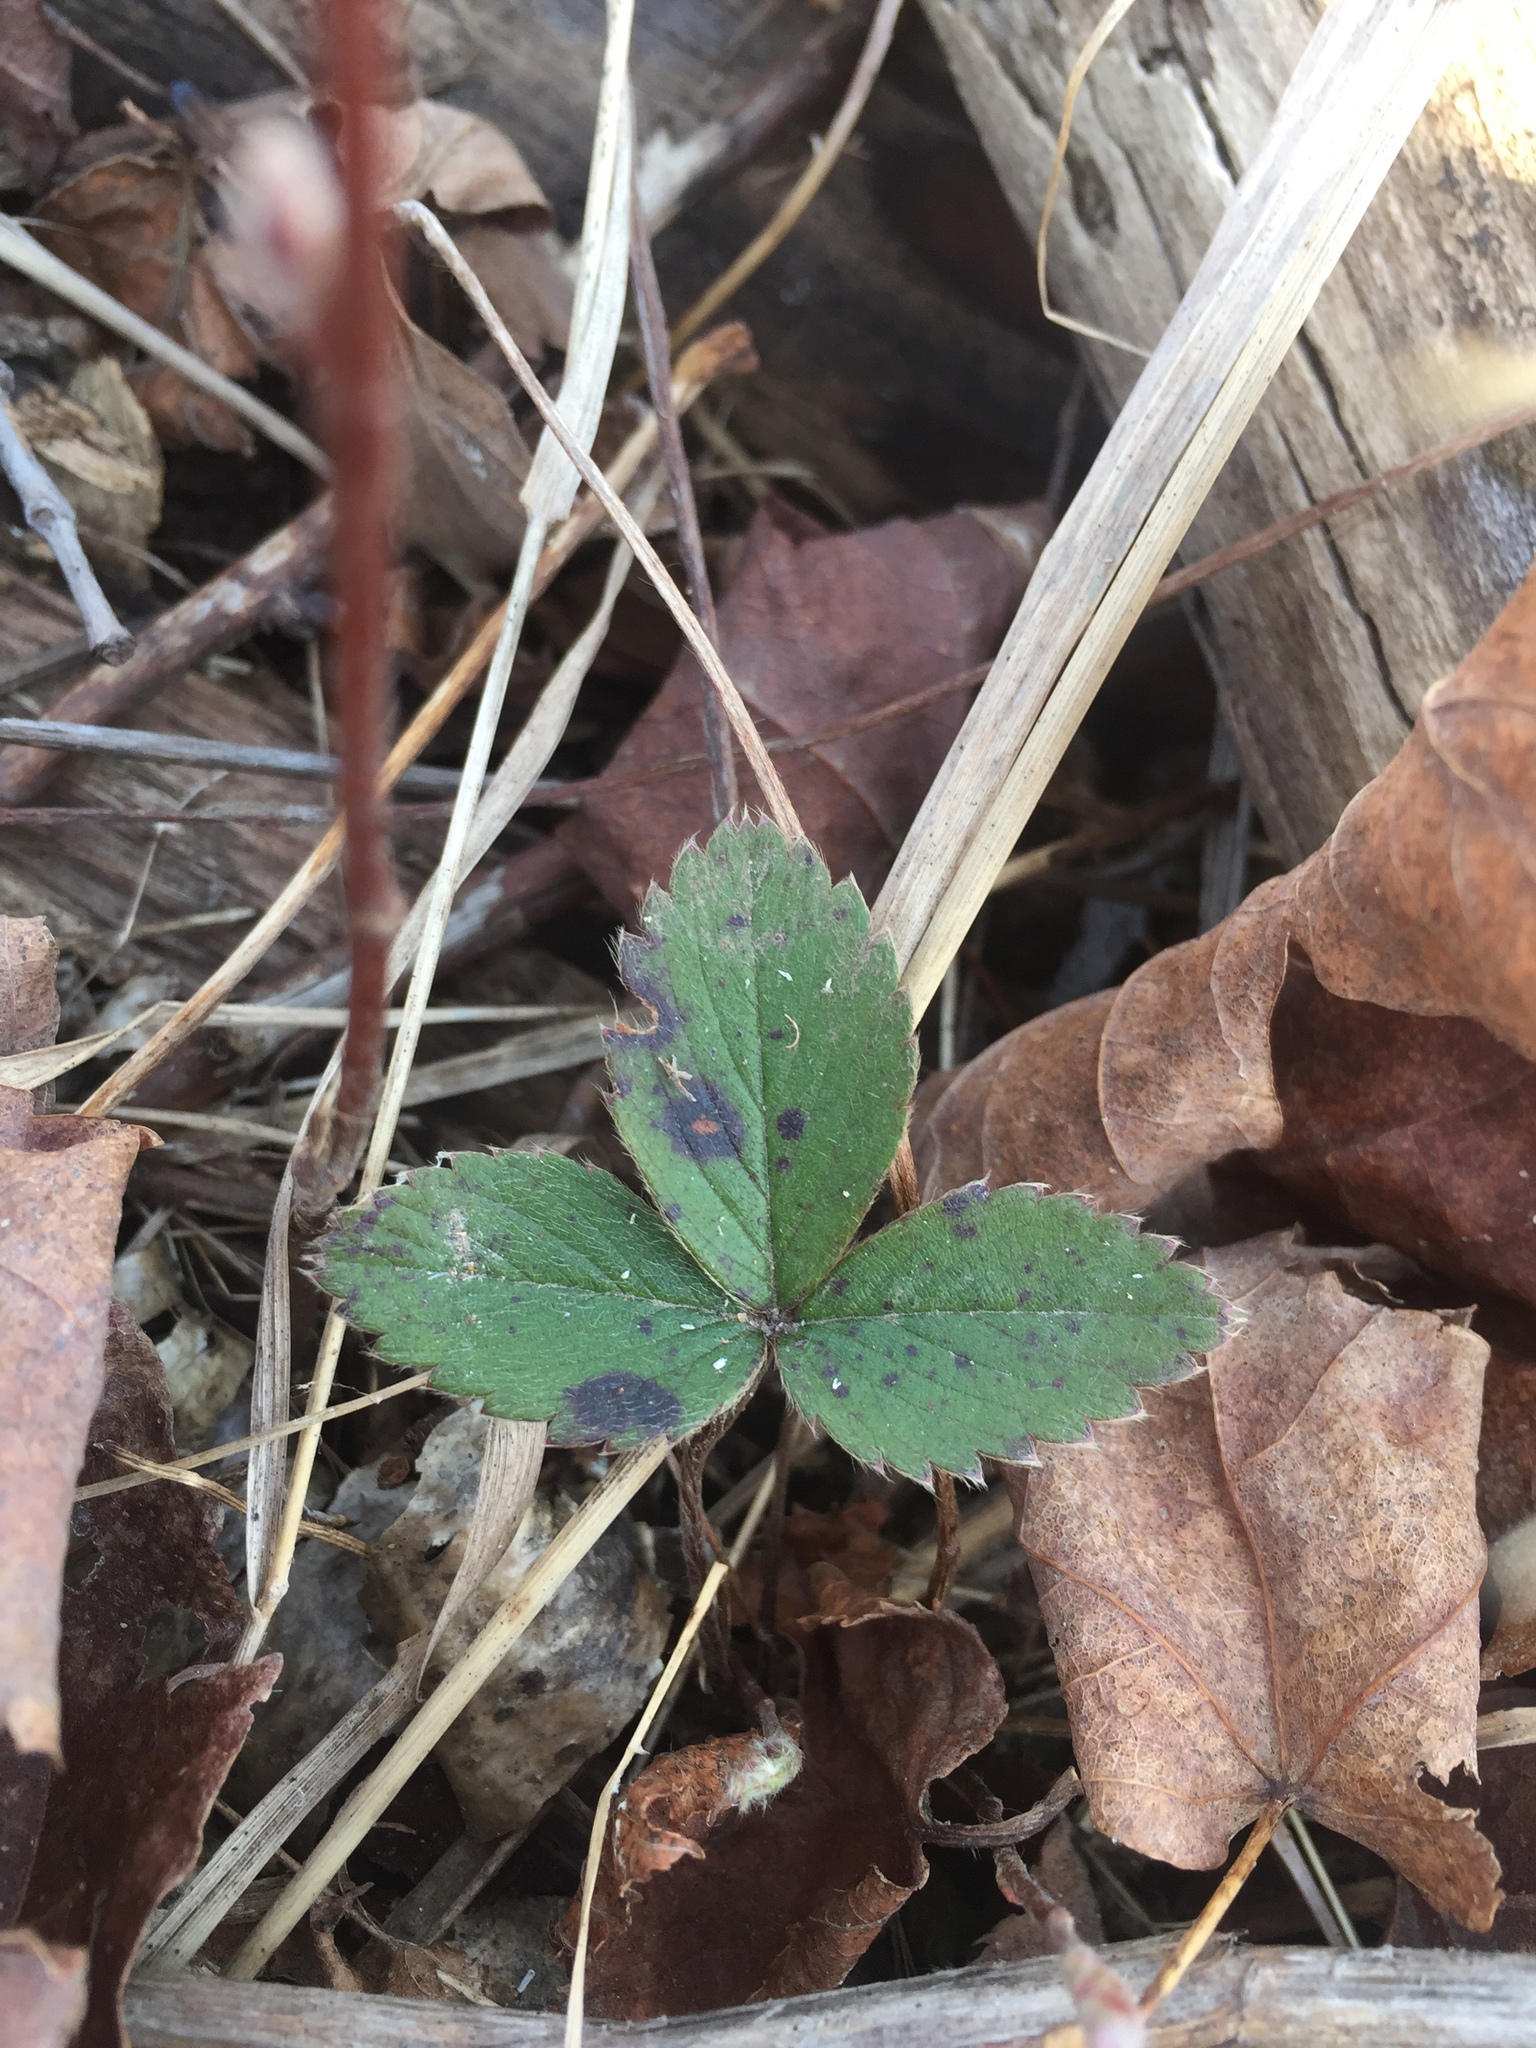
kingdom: Plantae
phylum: Tracheophyta
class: Magnoliopsida
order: Rosales
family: Rosaceae
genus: Fragaria
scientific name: Fragaria virginiana
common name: Thickleaved wild strawberry
